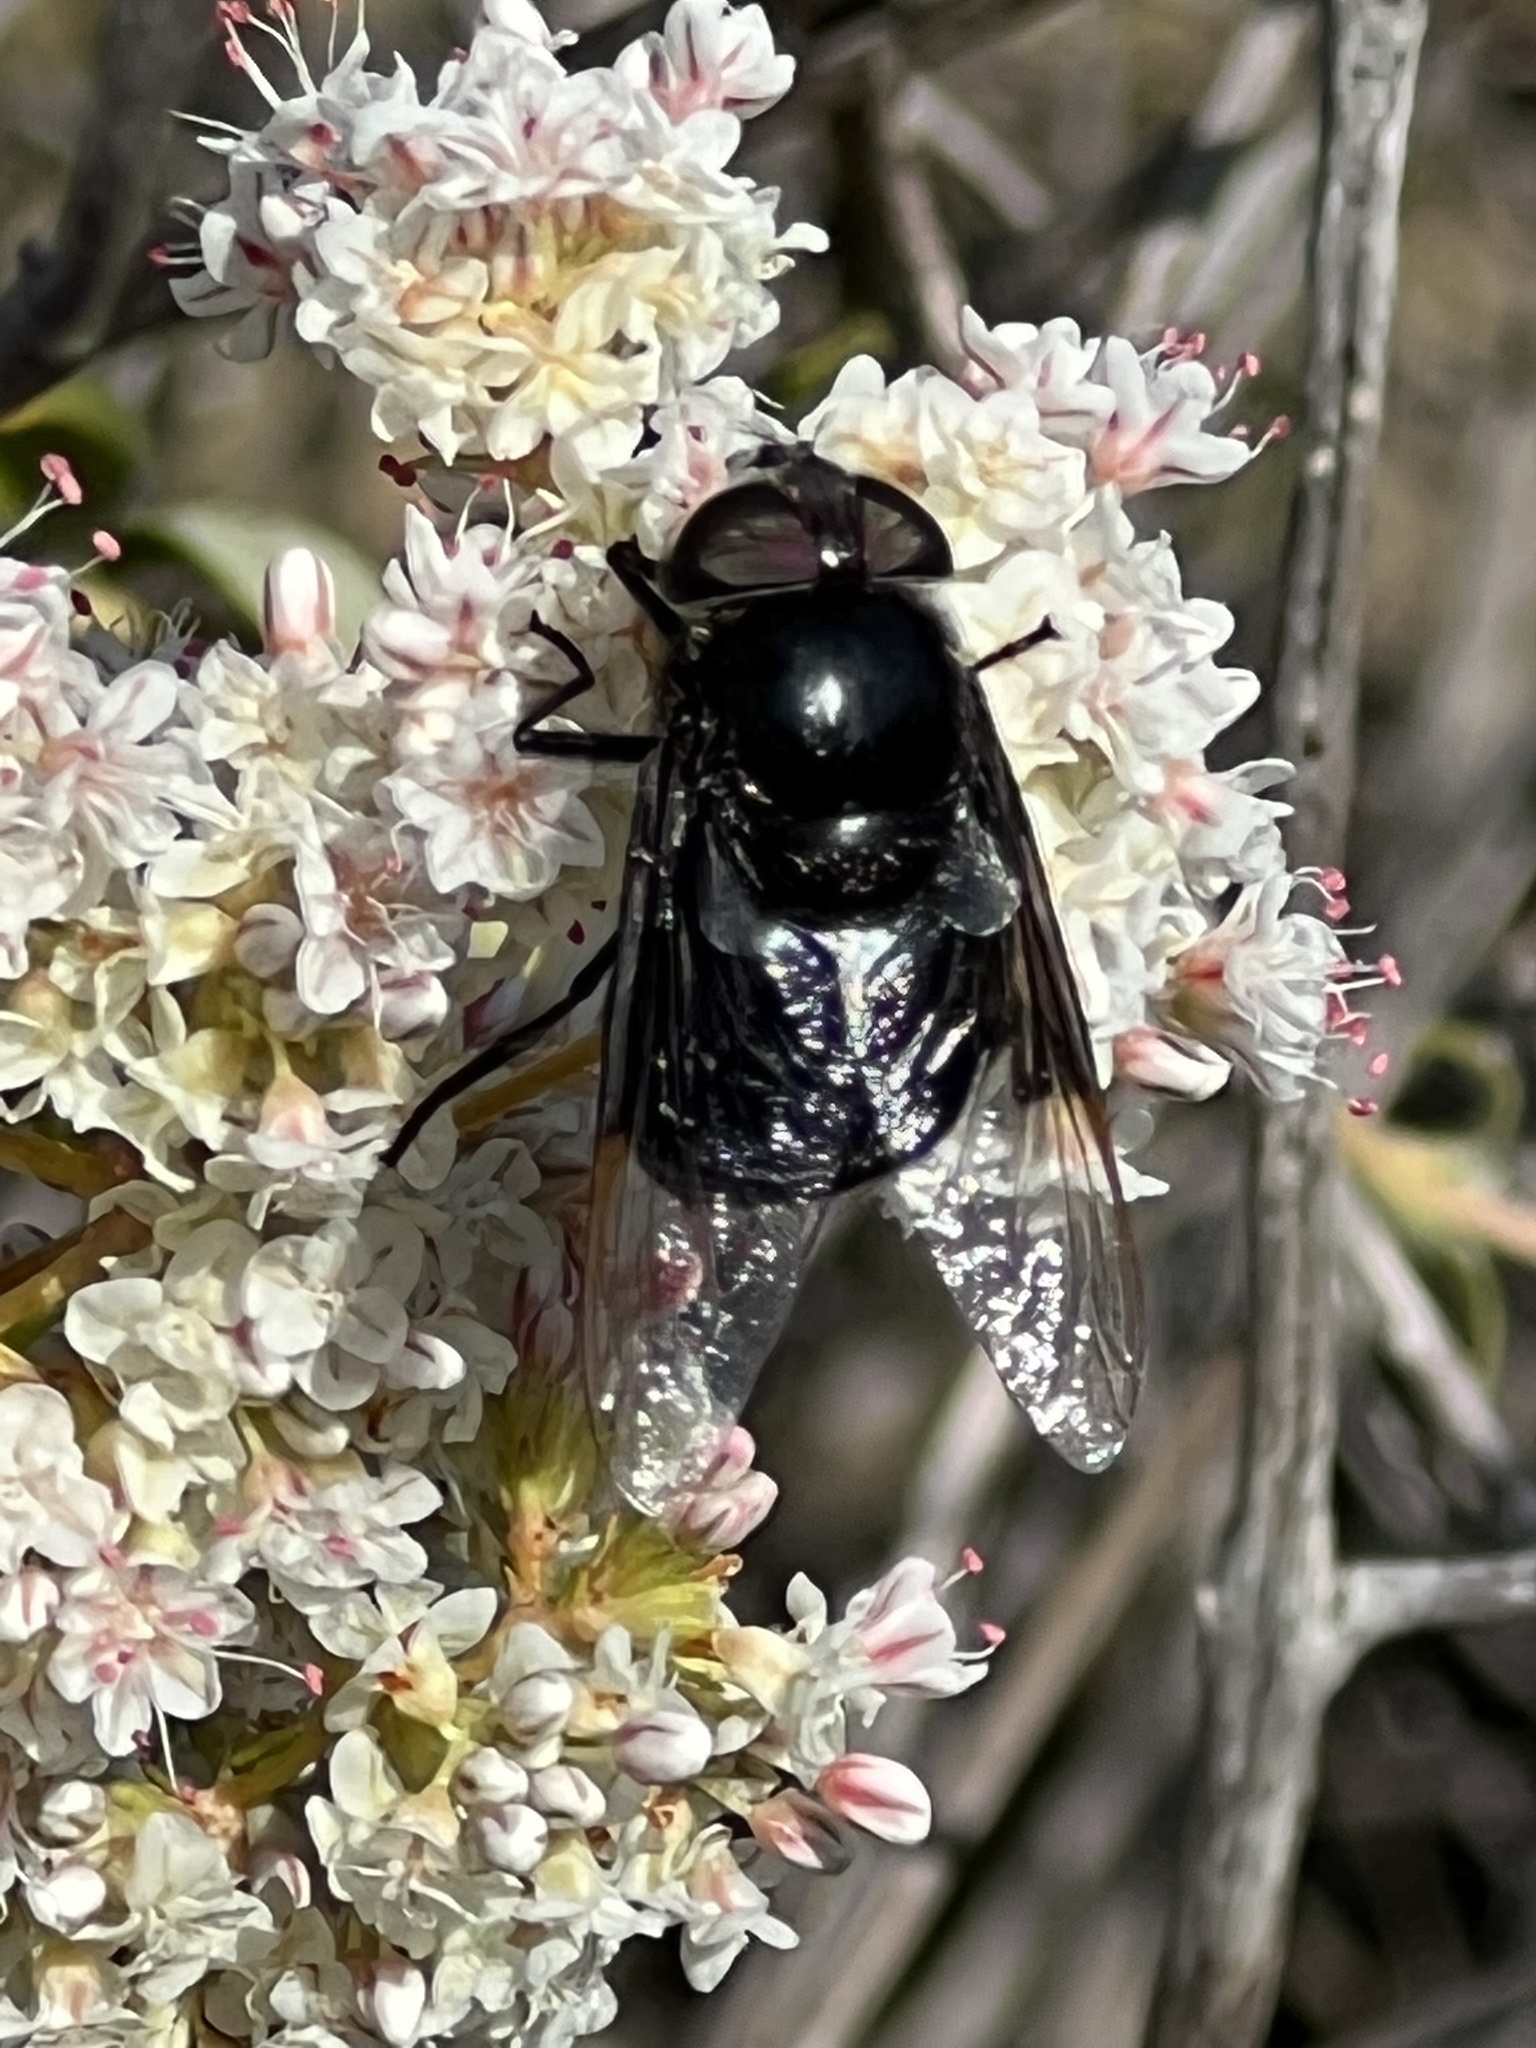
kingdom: Animalia
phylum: Arthropoda
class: Insecta
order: Diptera
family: Syrphidae
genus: Copestylum
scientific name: Copestylum
